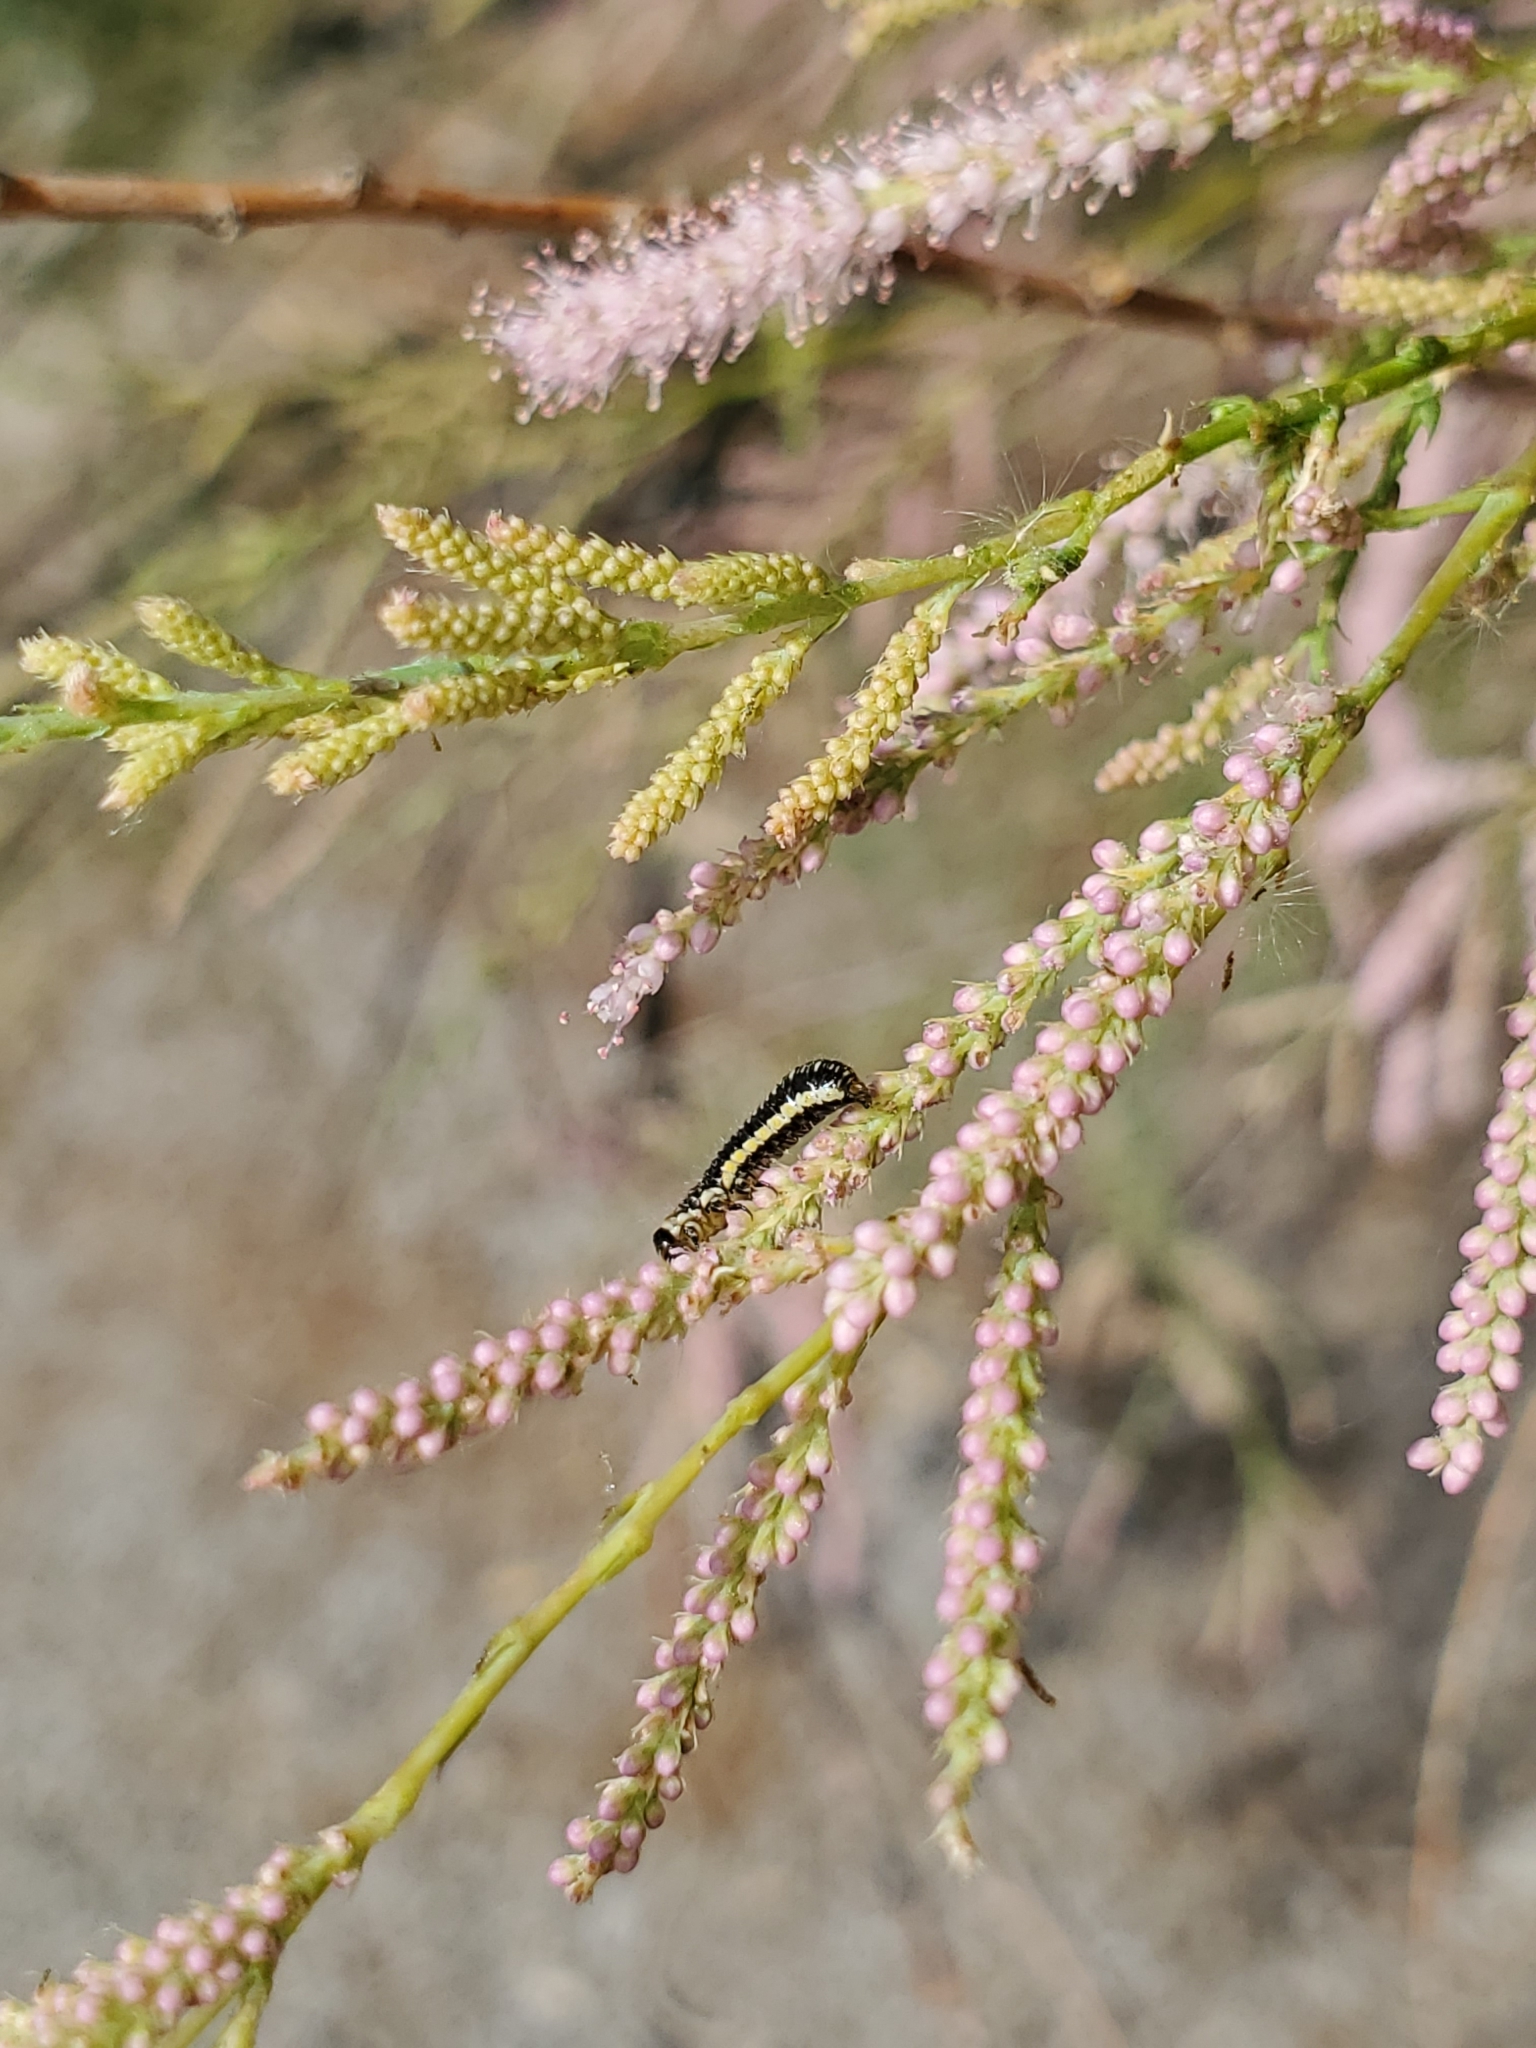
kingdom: Animalia
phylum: Arthropoda
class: Insecta
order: Coleoptera
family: Chrysomelidae
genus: Diorhabda
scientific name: Diorhabda carinulata
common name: Tamarisk leaf beetle
